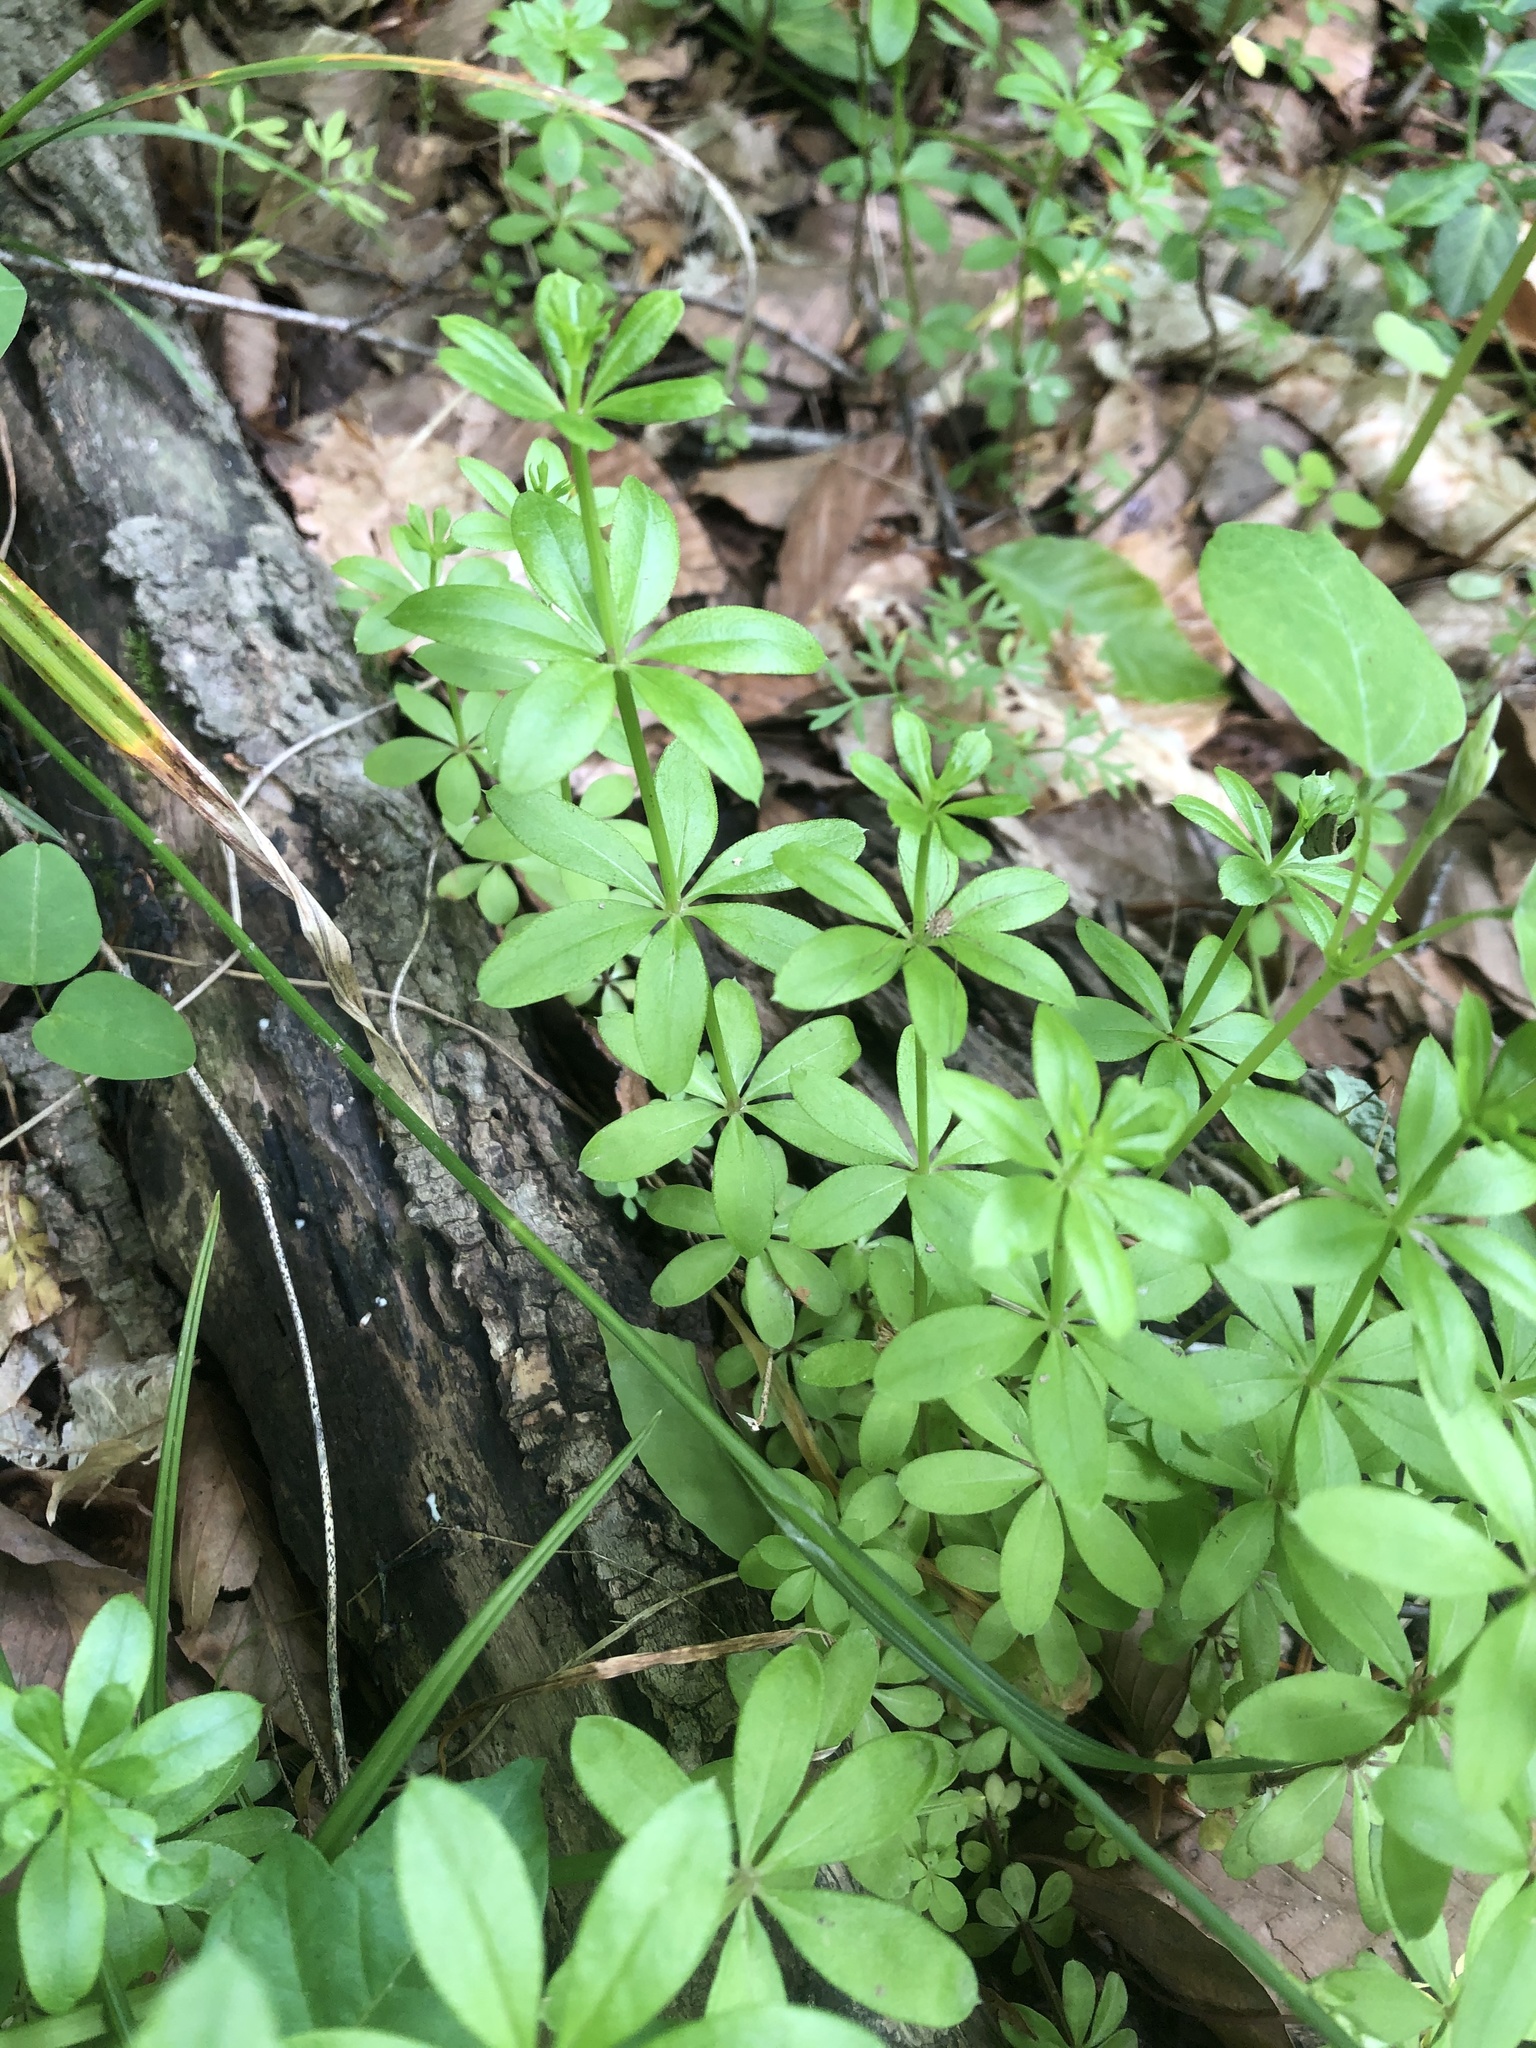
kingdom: Plantae
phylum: Tracheophyta
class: Magnoliopsida
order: Gentianales
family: Rubiaceae
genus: Galium
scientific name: Galium triflorum
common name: Fragrant bedstraw
